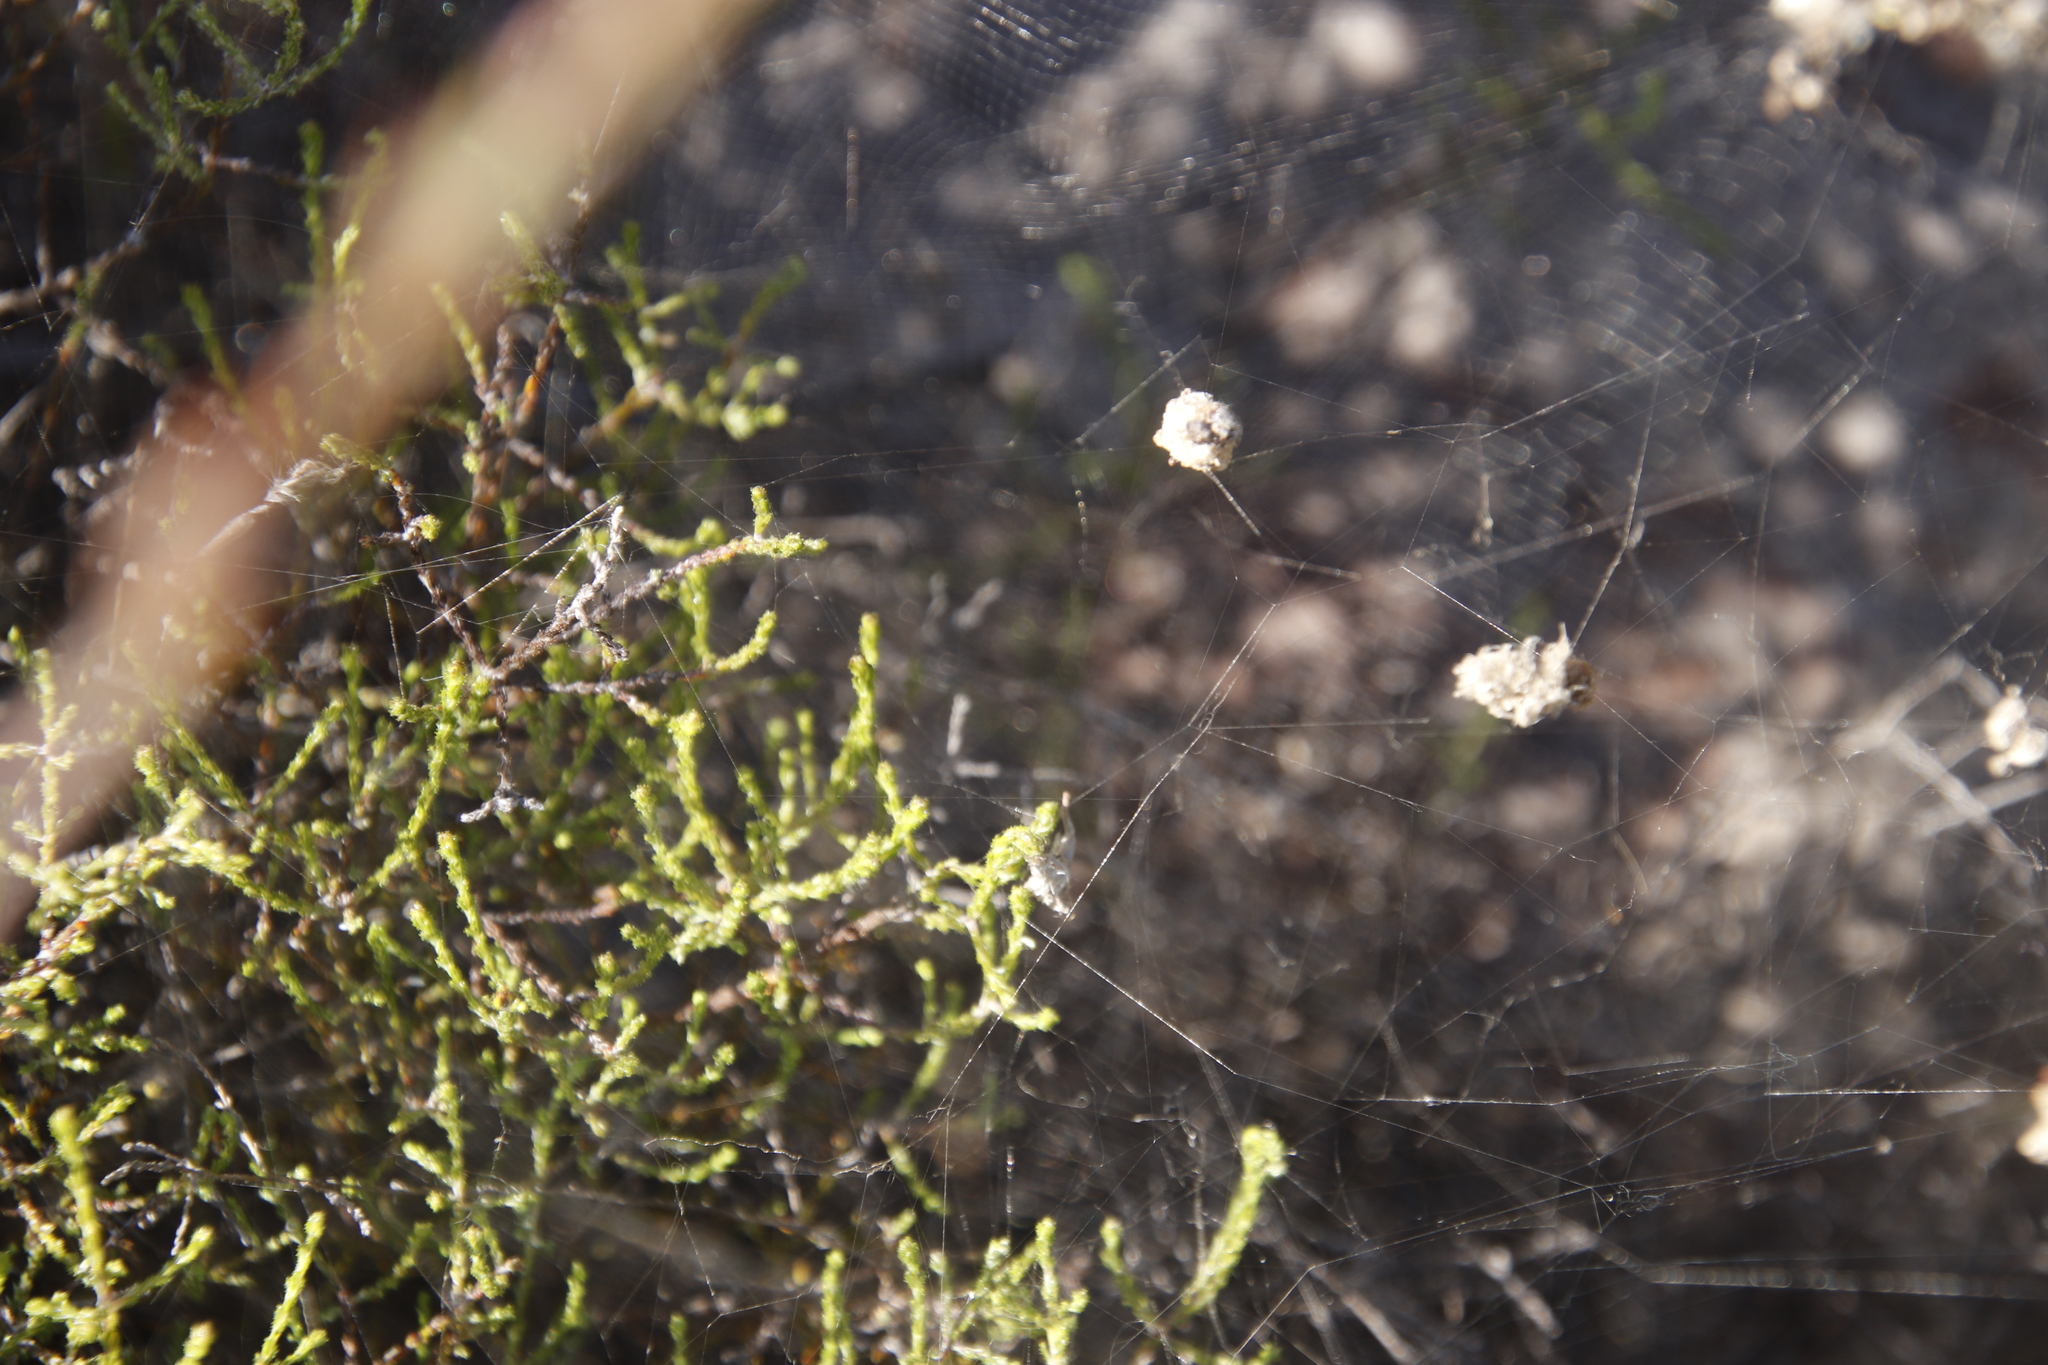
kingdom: Animalia
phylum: Arthropoda
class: Arachnida
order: Araneae
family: Araneidae
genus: Cyrtophora
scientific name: Cyrtophora citricola
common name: Orb weavers
